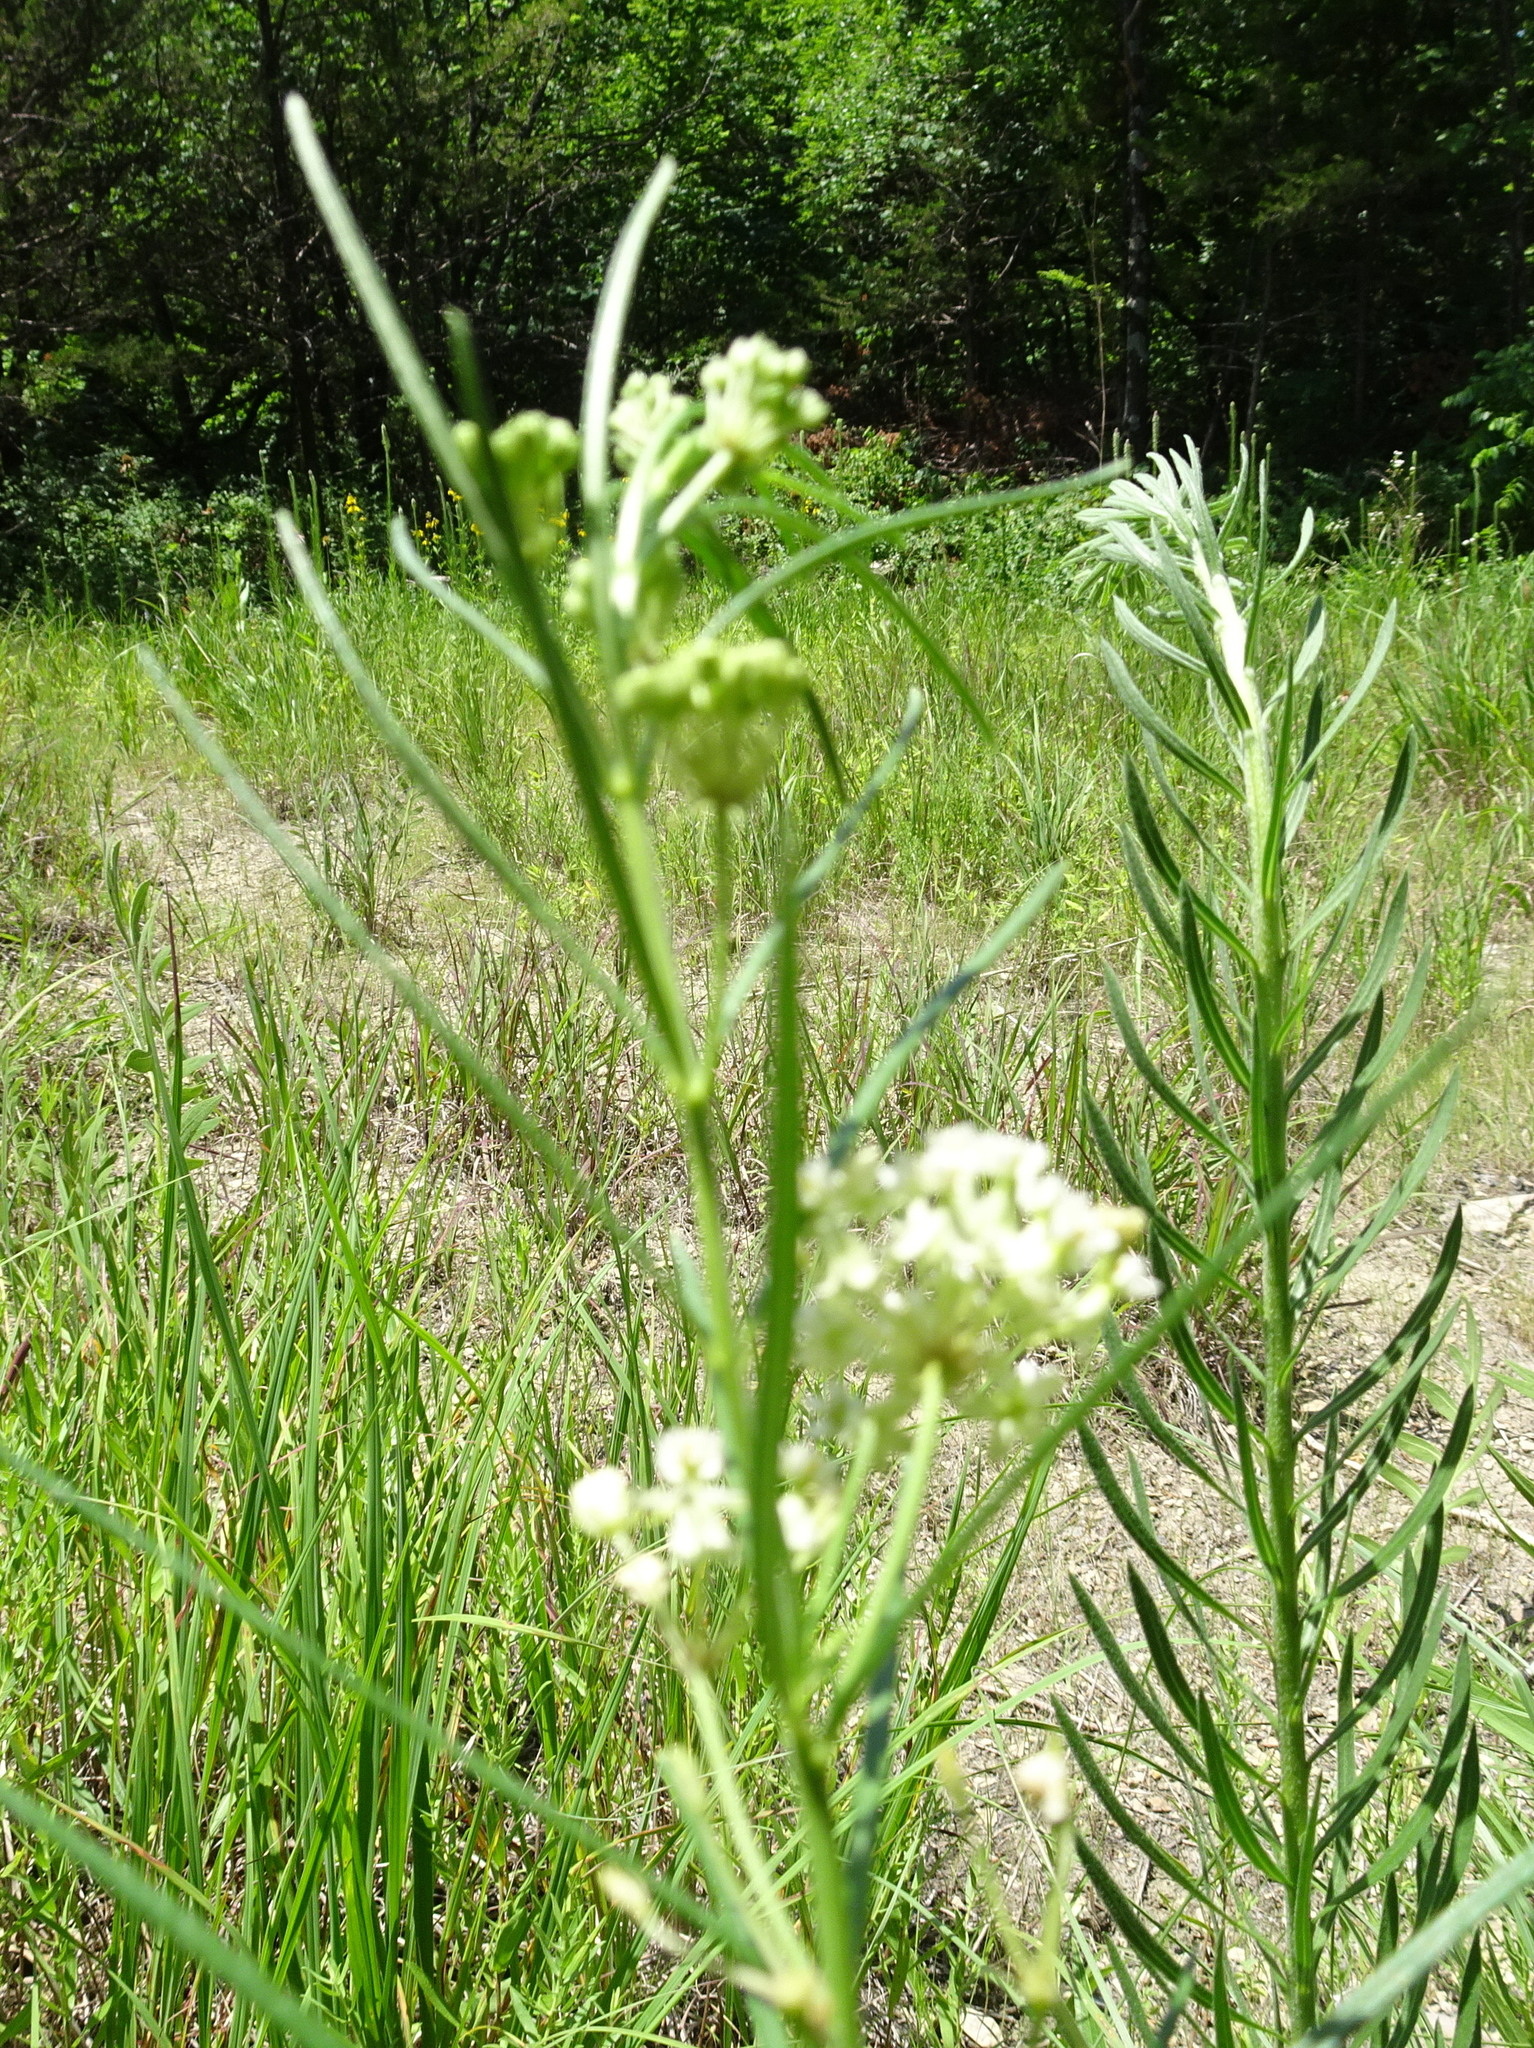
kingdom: Plantae
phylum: Tracheophyta
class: Magnoliopsida
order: Gentianales
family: Apocynaceae
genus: Asclepias
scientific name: Asclepias verticillata
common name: Eastern whorled milkweed
